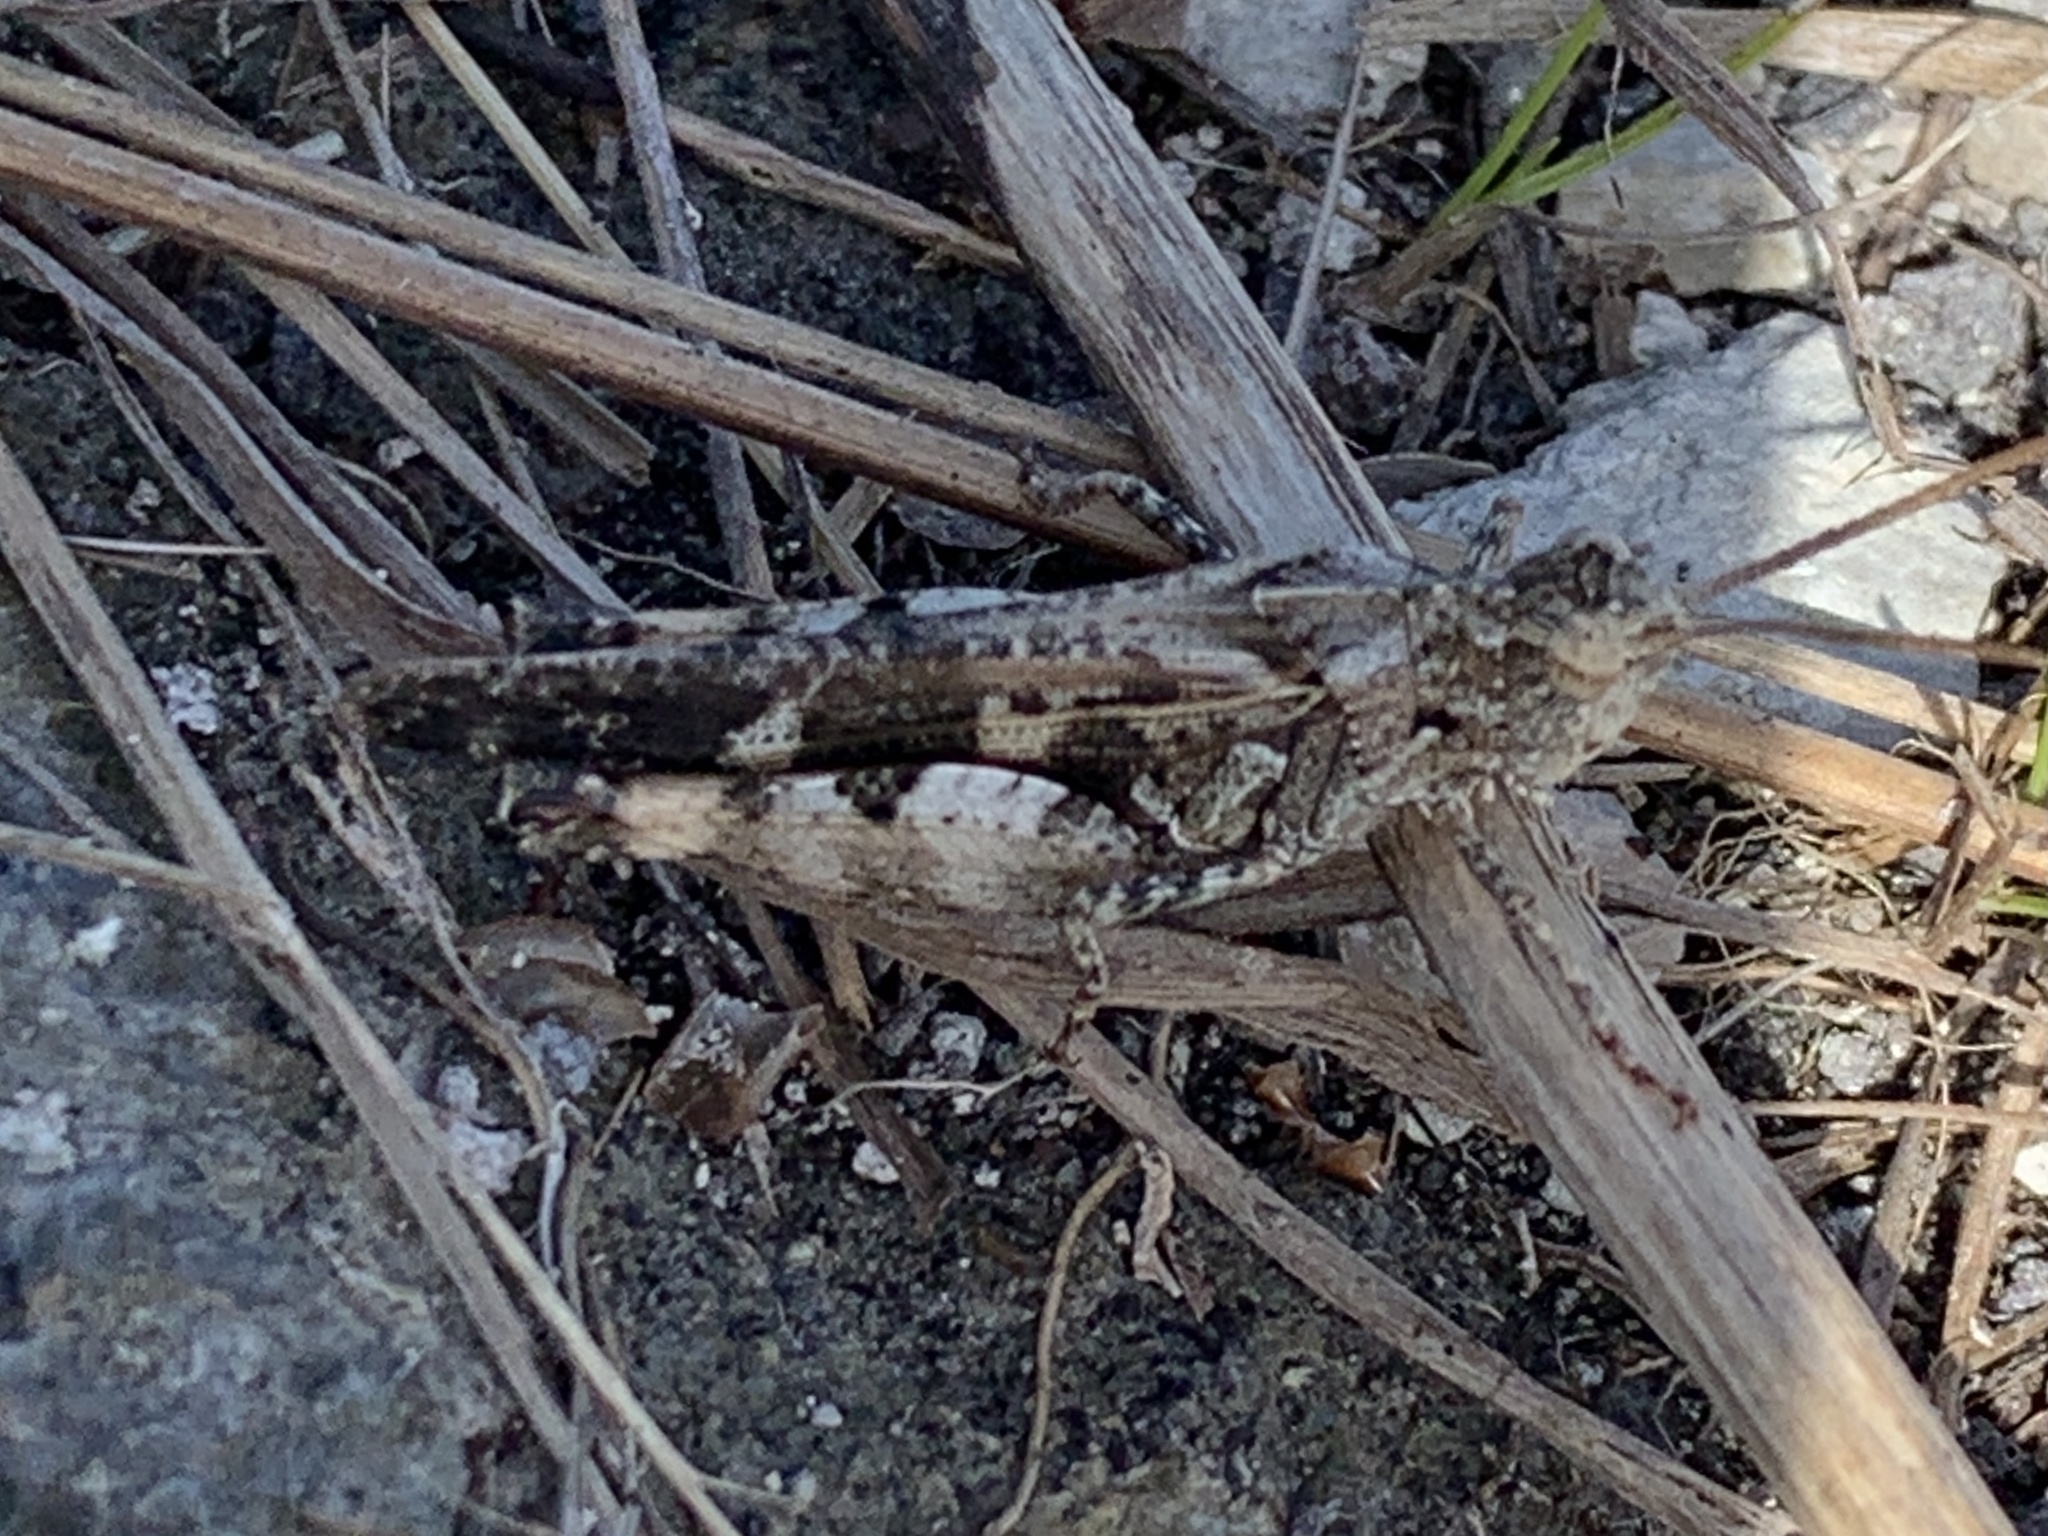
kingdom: Animalia
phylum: Arthropoda
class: Insecta
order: Orthoptera
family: Acrididae
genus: Chortophaga
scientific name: Chortophaga australior
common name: Southern green-striped grasshopper
